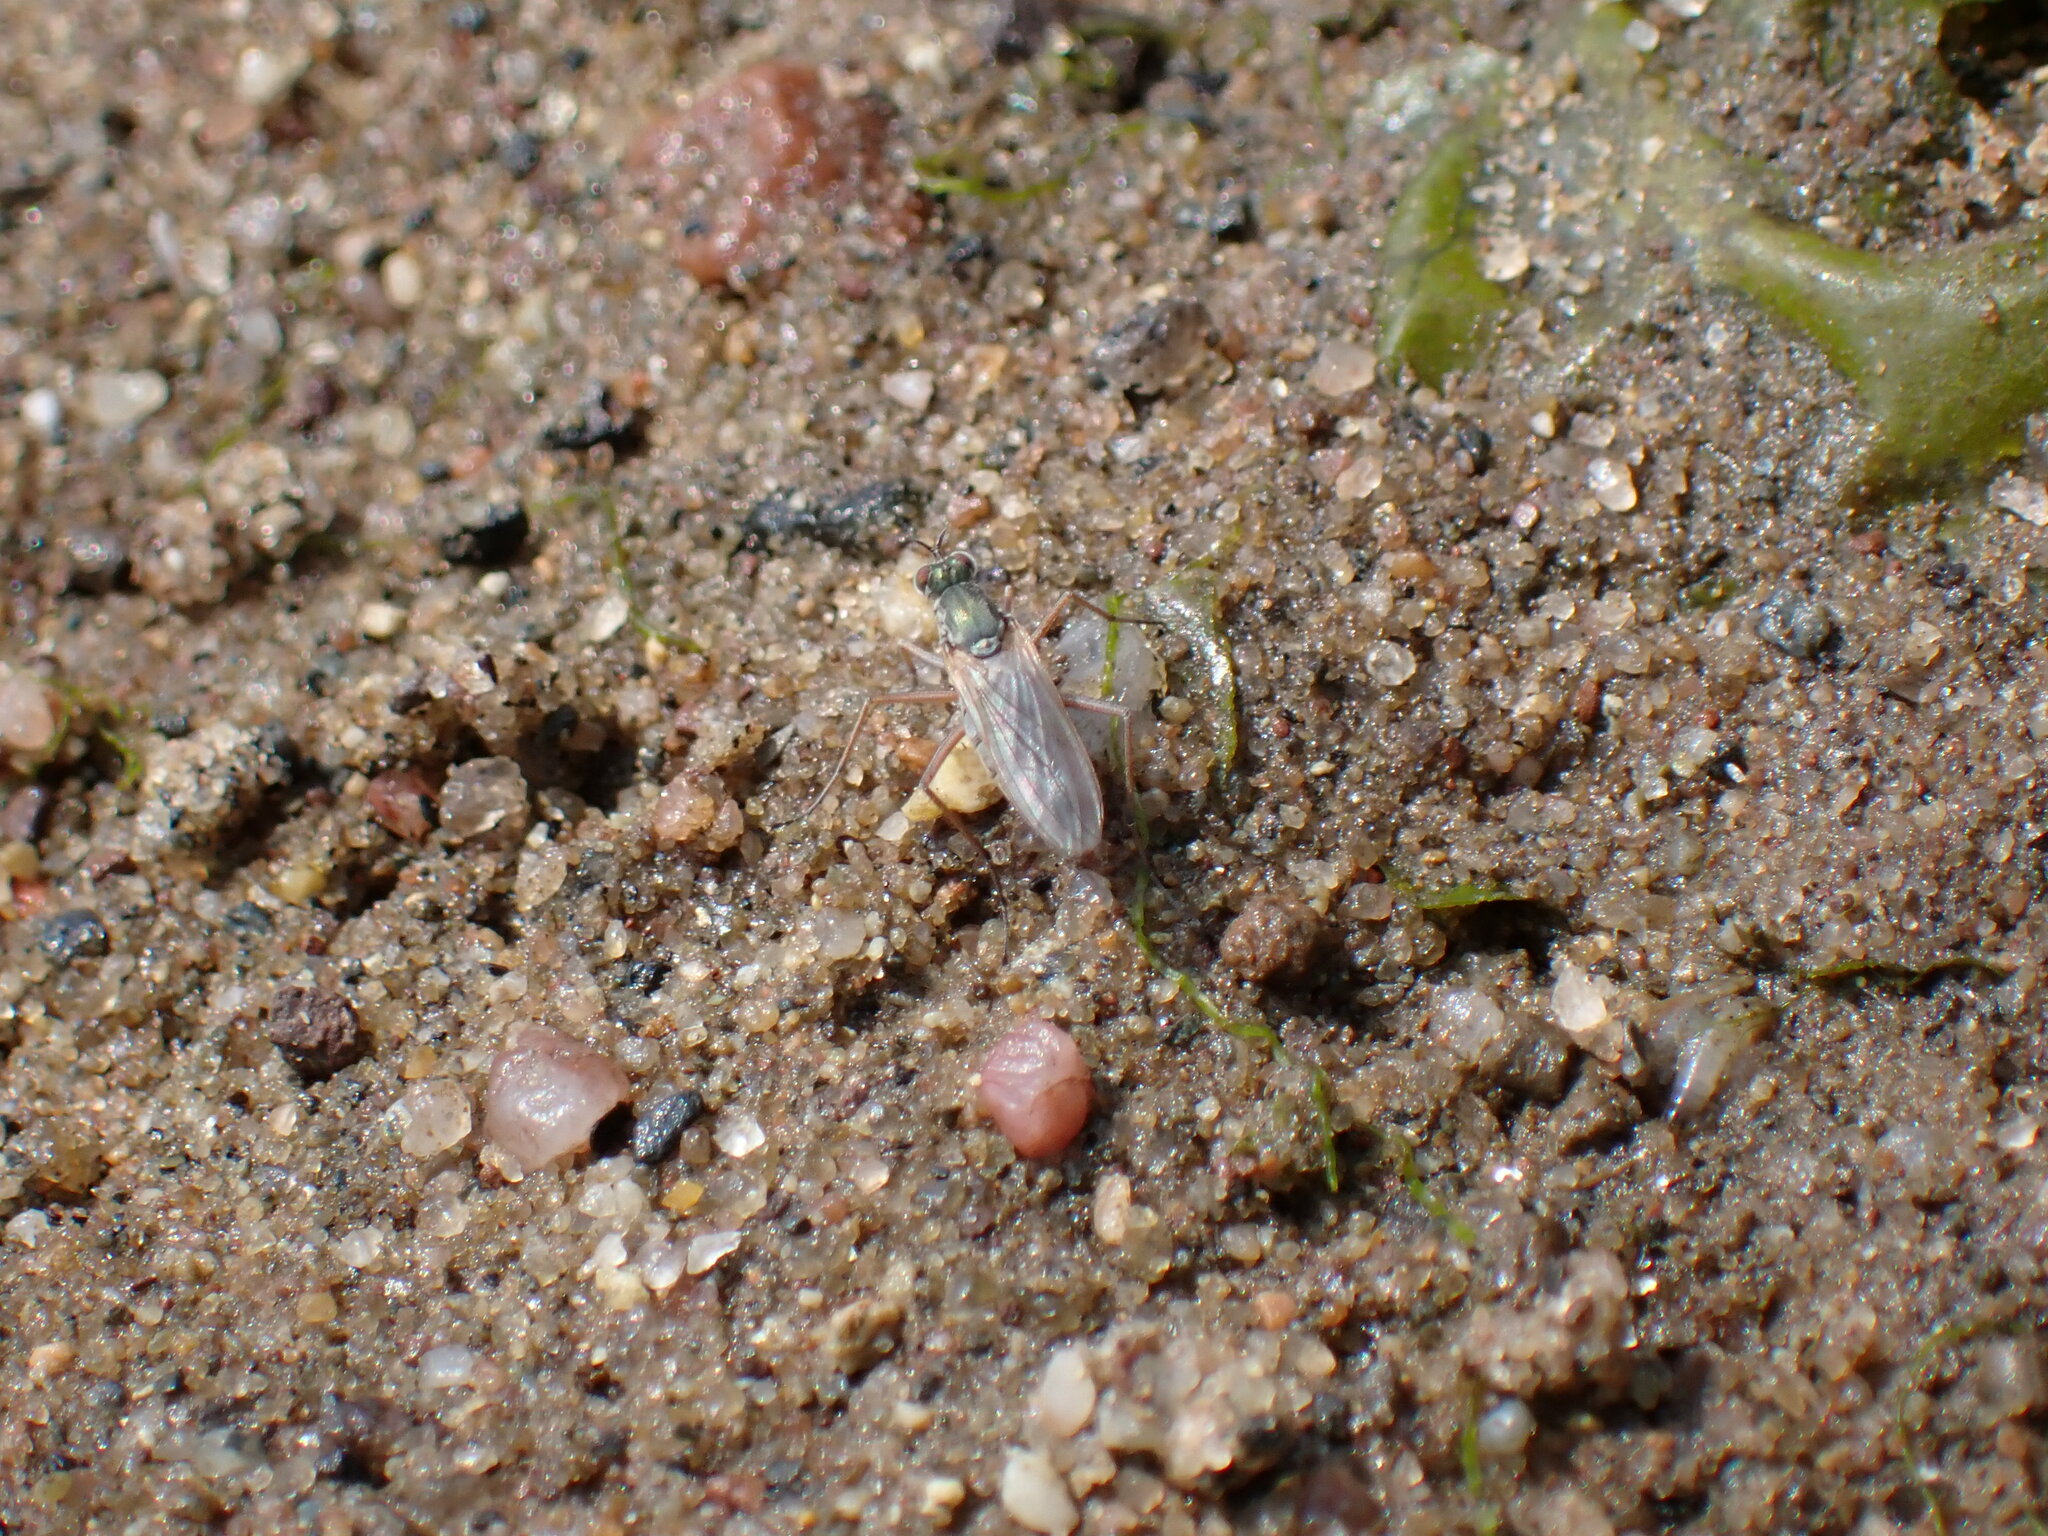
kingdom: Animalia
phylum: Arthropoda
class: Insecta
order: Diptera
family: Dolichopodidae
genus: Hypocharassus
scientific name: Hypocharassus pruinosus
